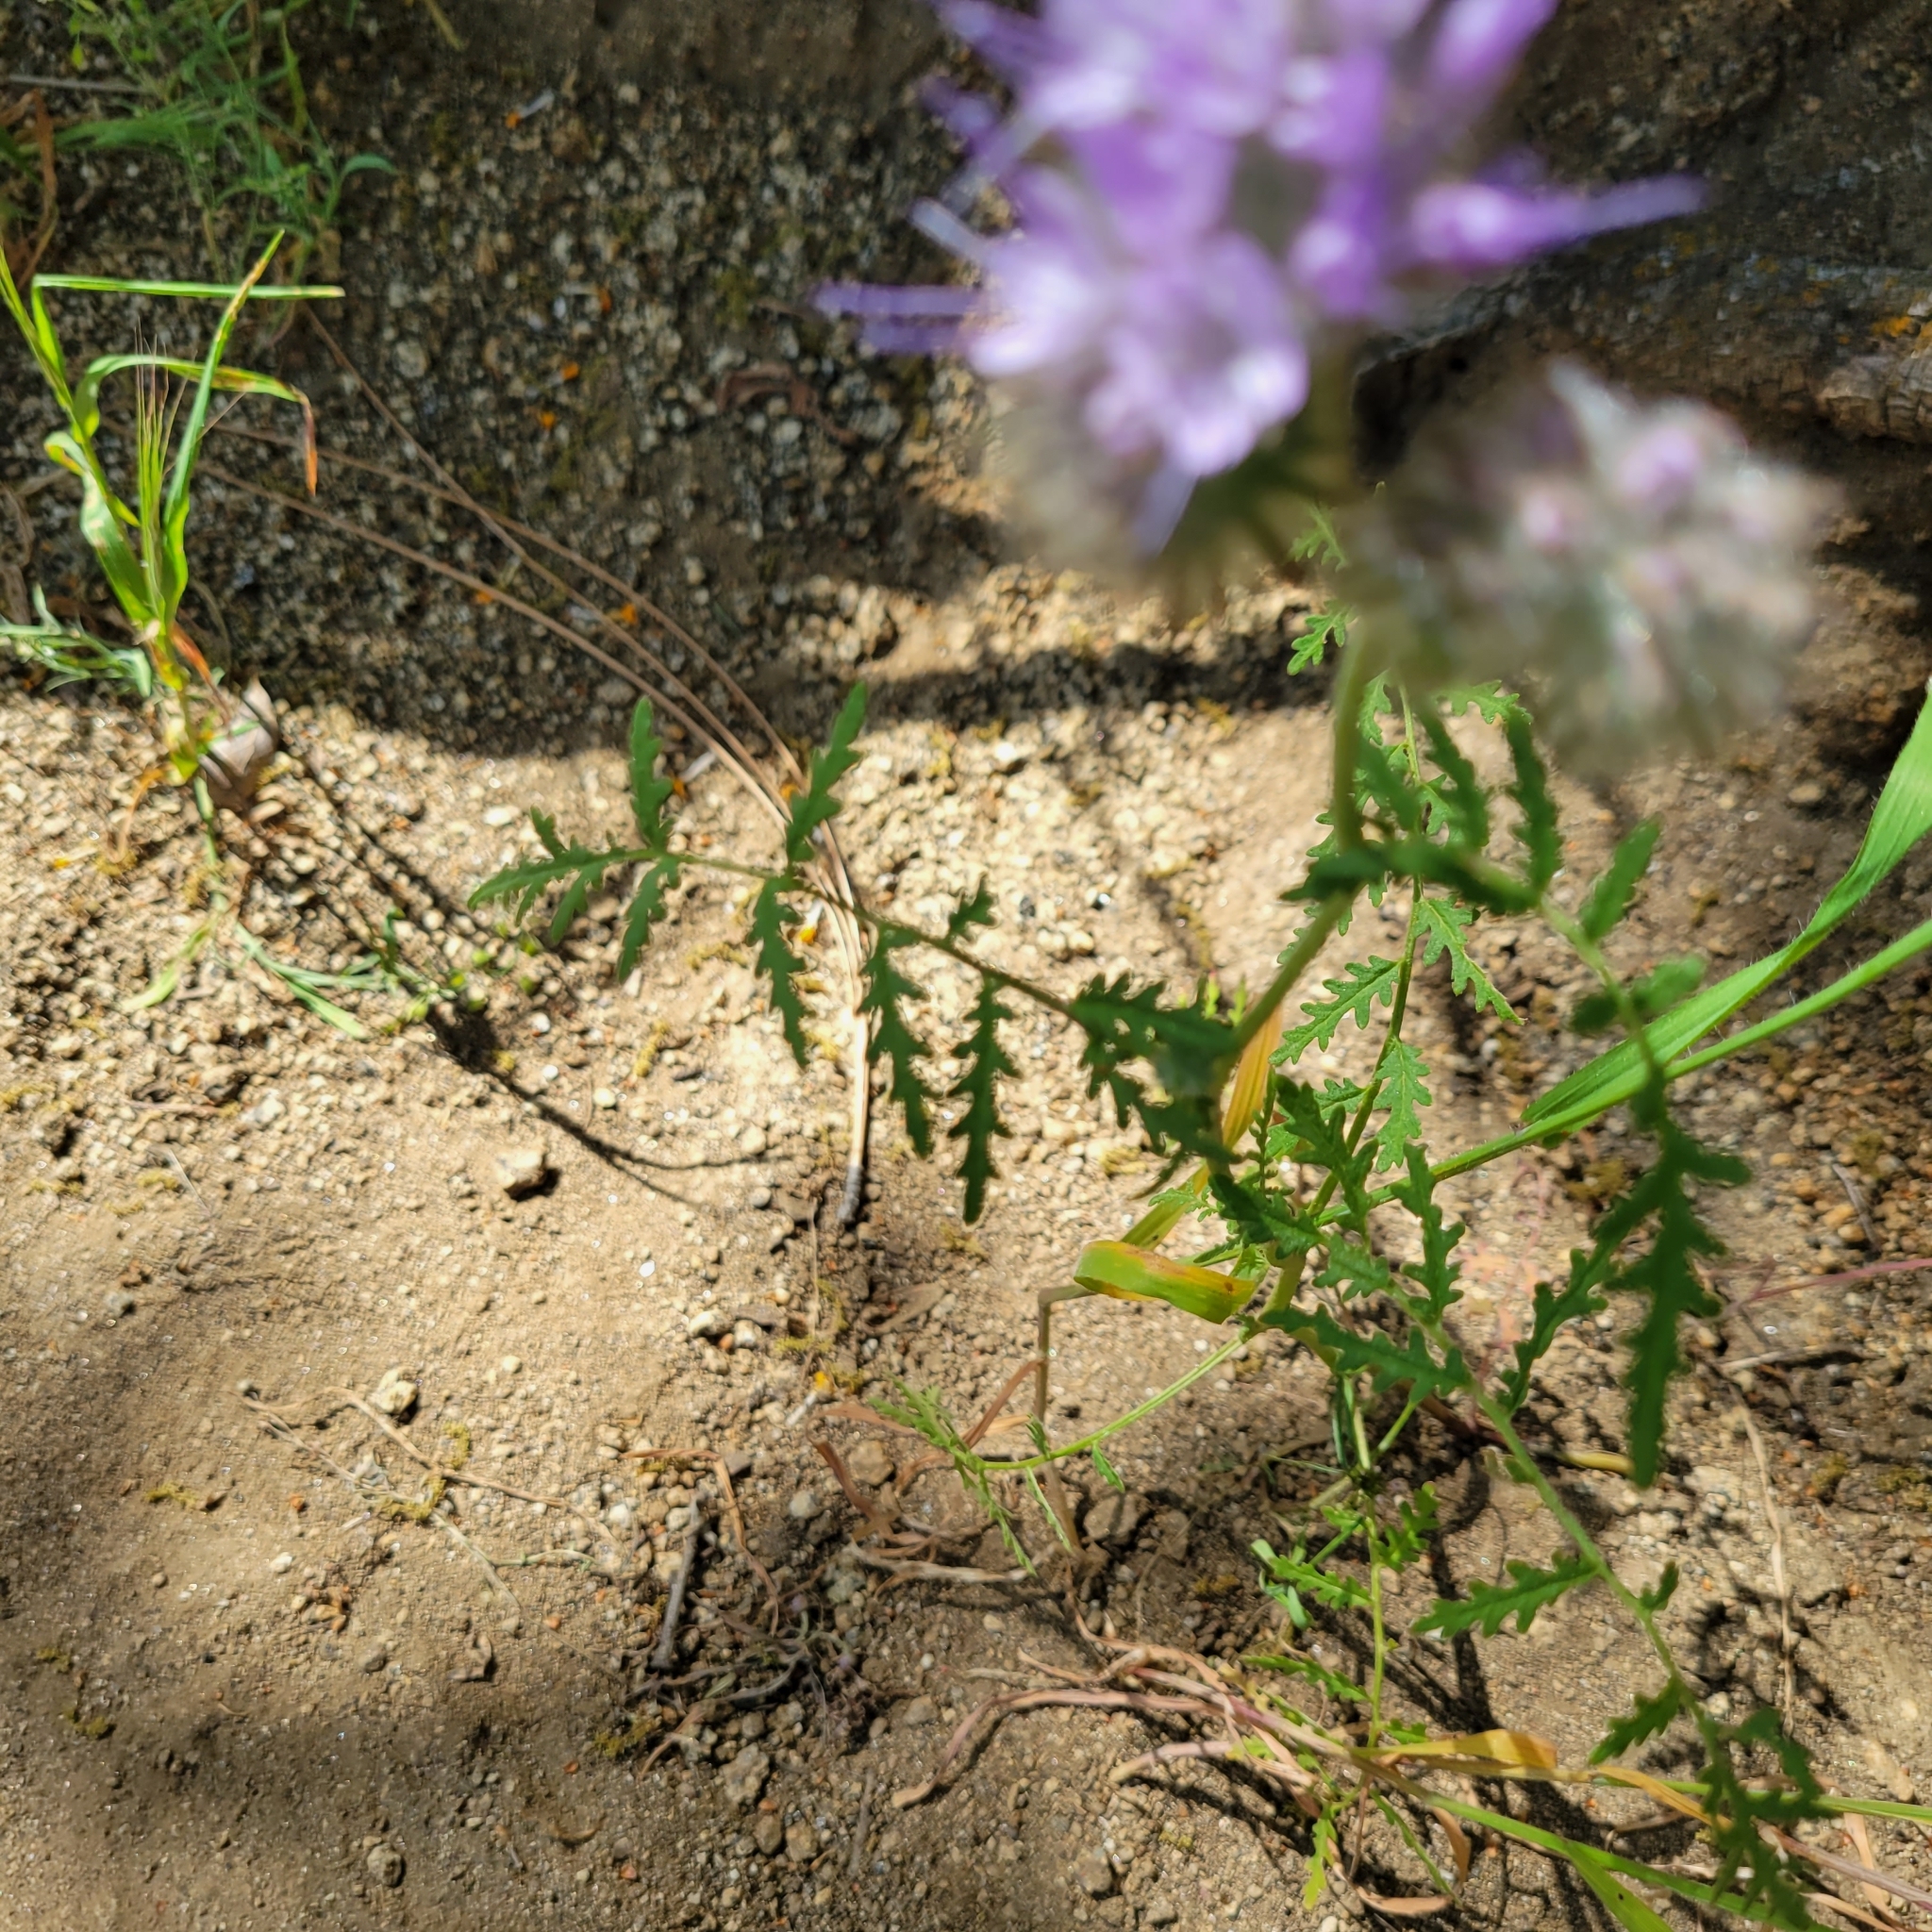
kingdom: Plantae
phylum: Tracheophyta
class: Magnoliopsida
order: Boraginales
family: Hydrophyllaceae
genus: Phacelia
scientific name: Phacelia tanacetifolia
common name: Phacelia
